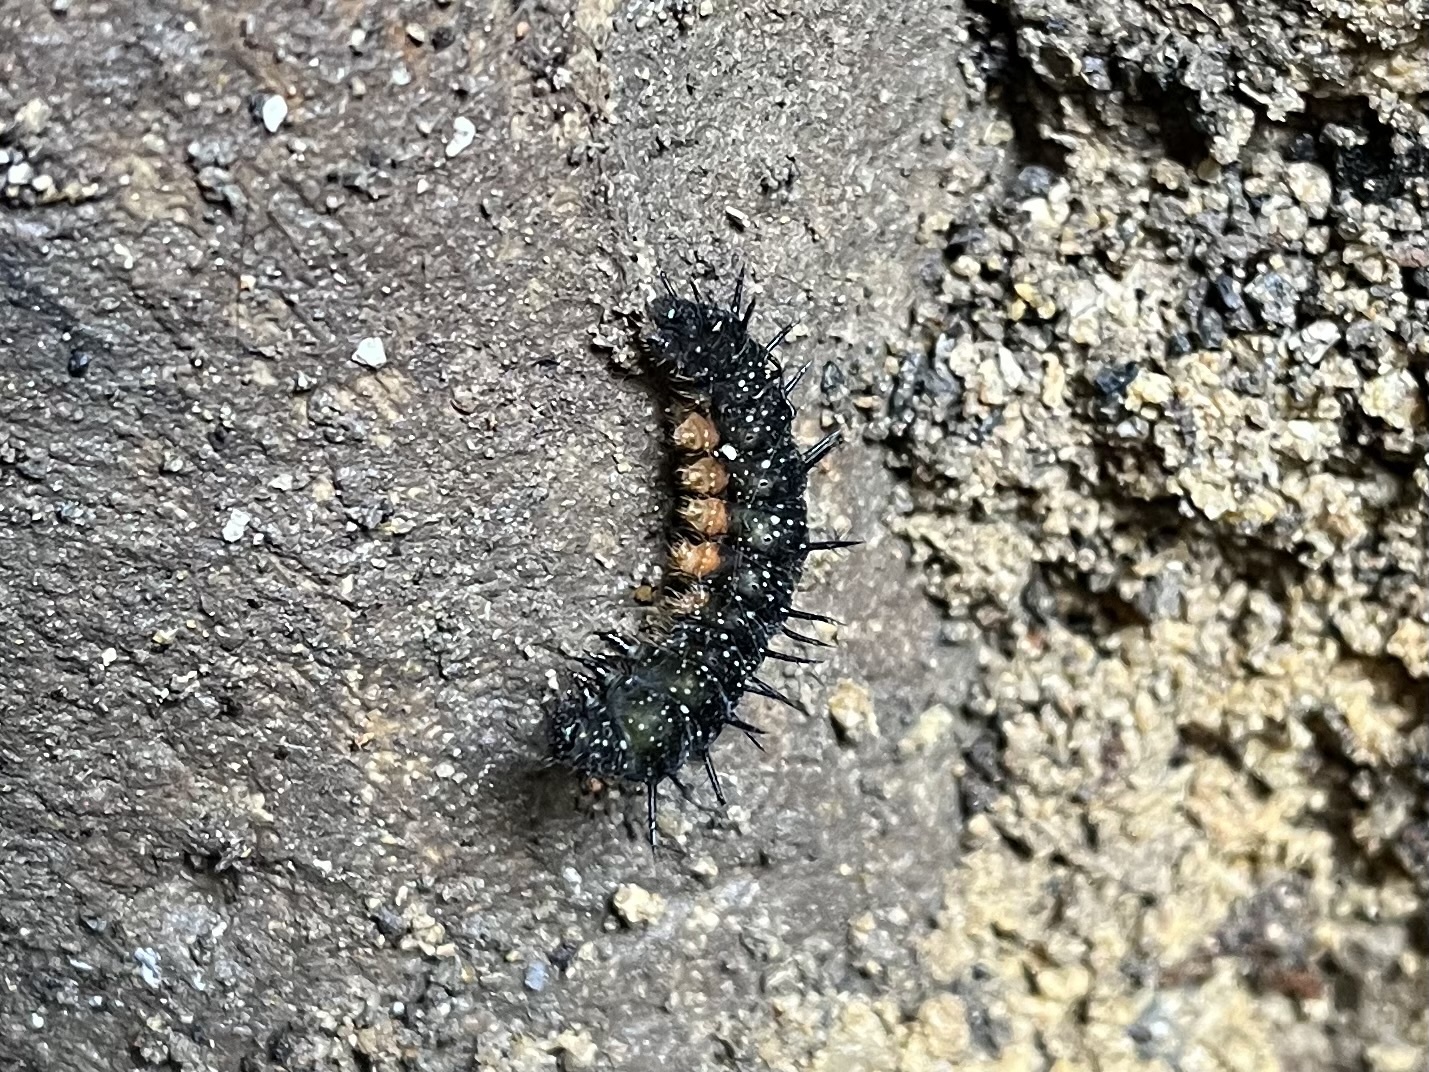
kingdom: Animalia
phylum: Arthropoda
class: Insecta
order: Lepidoptera
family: Nymphalidae
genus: Aglais
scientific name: Aglais io
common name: Peacock
